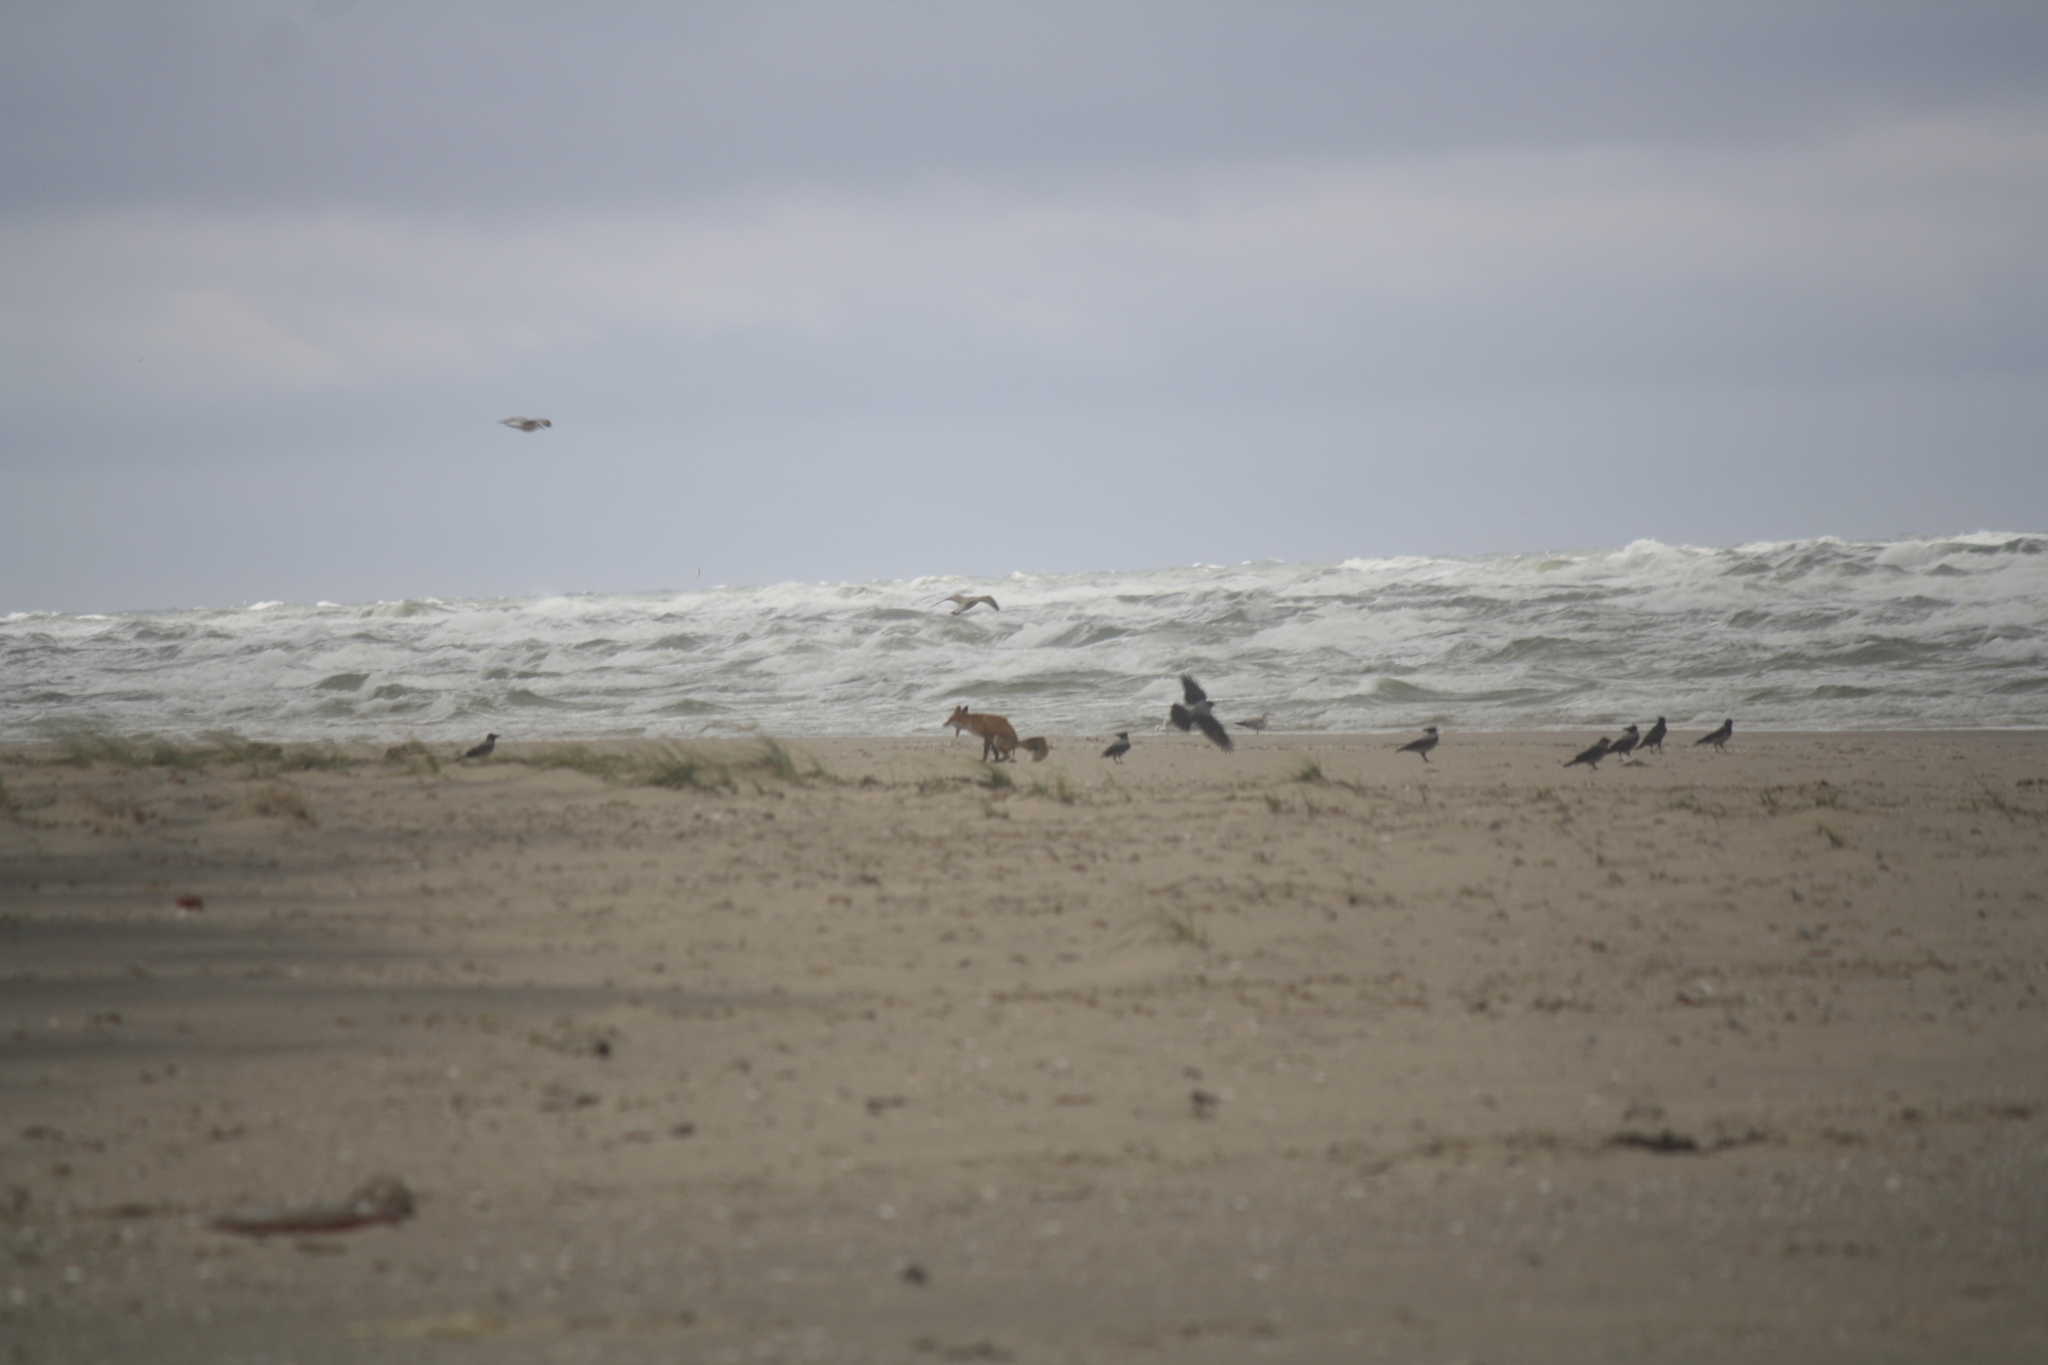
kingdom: Animalia
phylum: Chordata
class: Mammalia
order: Carnivora
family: Canidae
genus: Vulpes
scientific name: Vulpes vulpes
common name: Red fox
